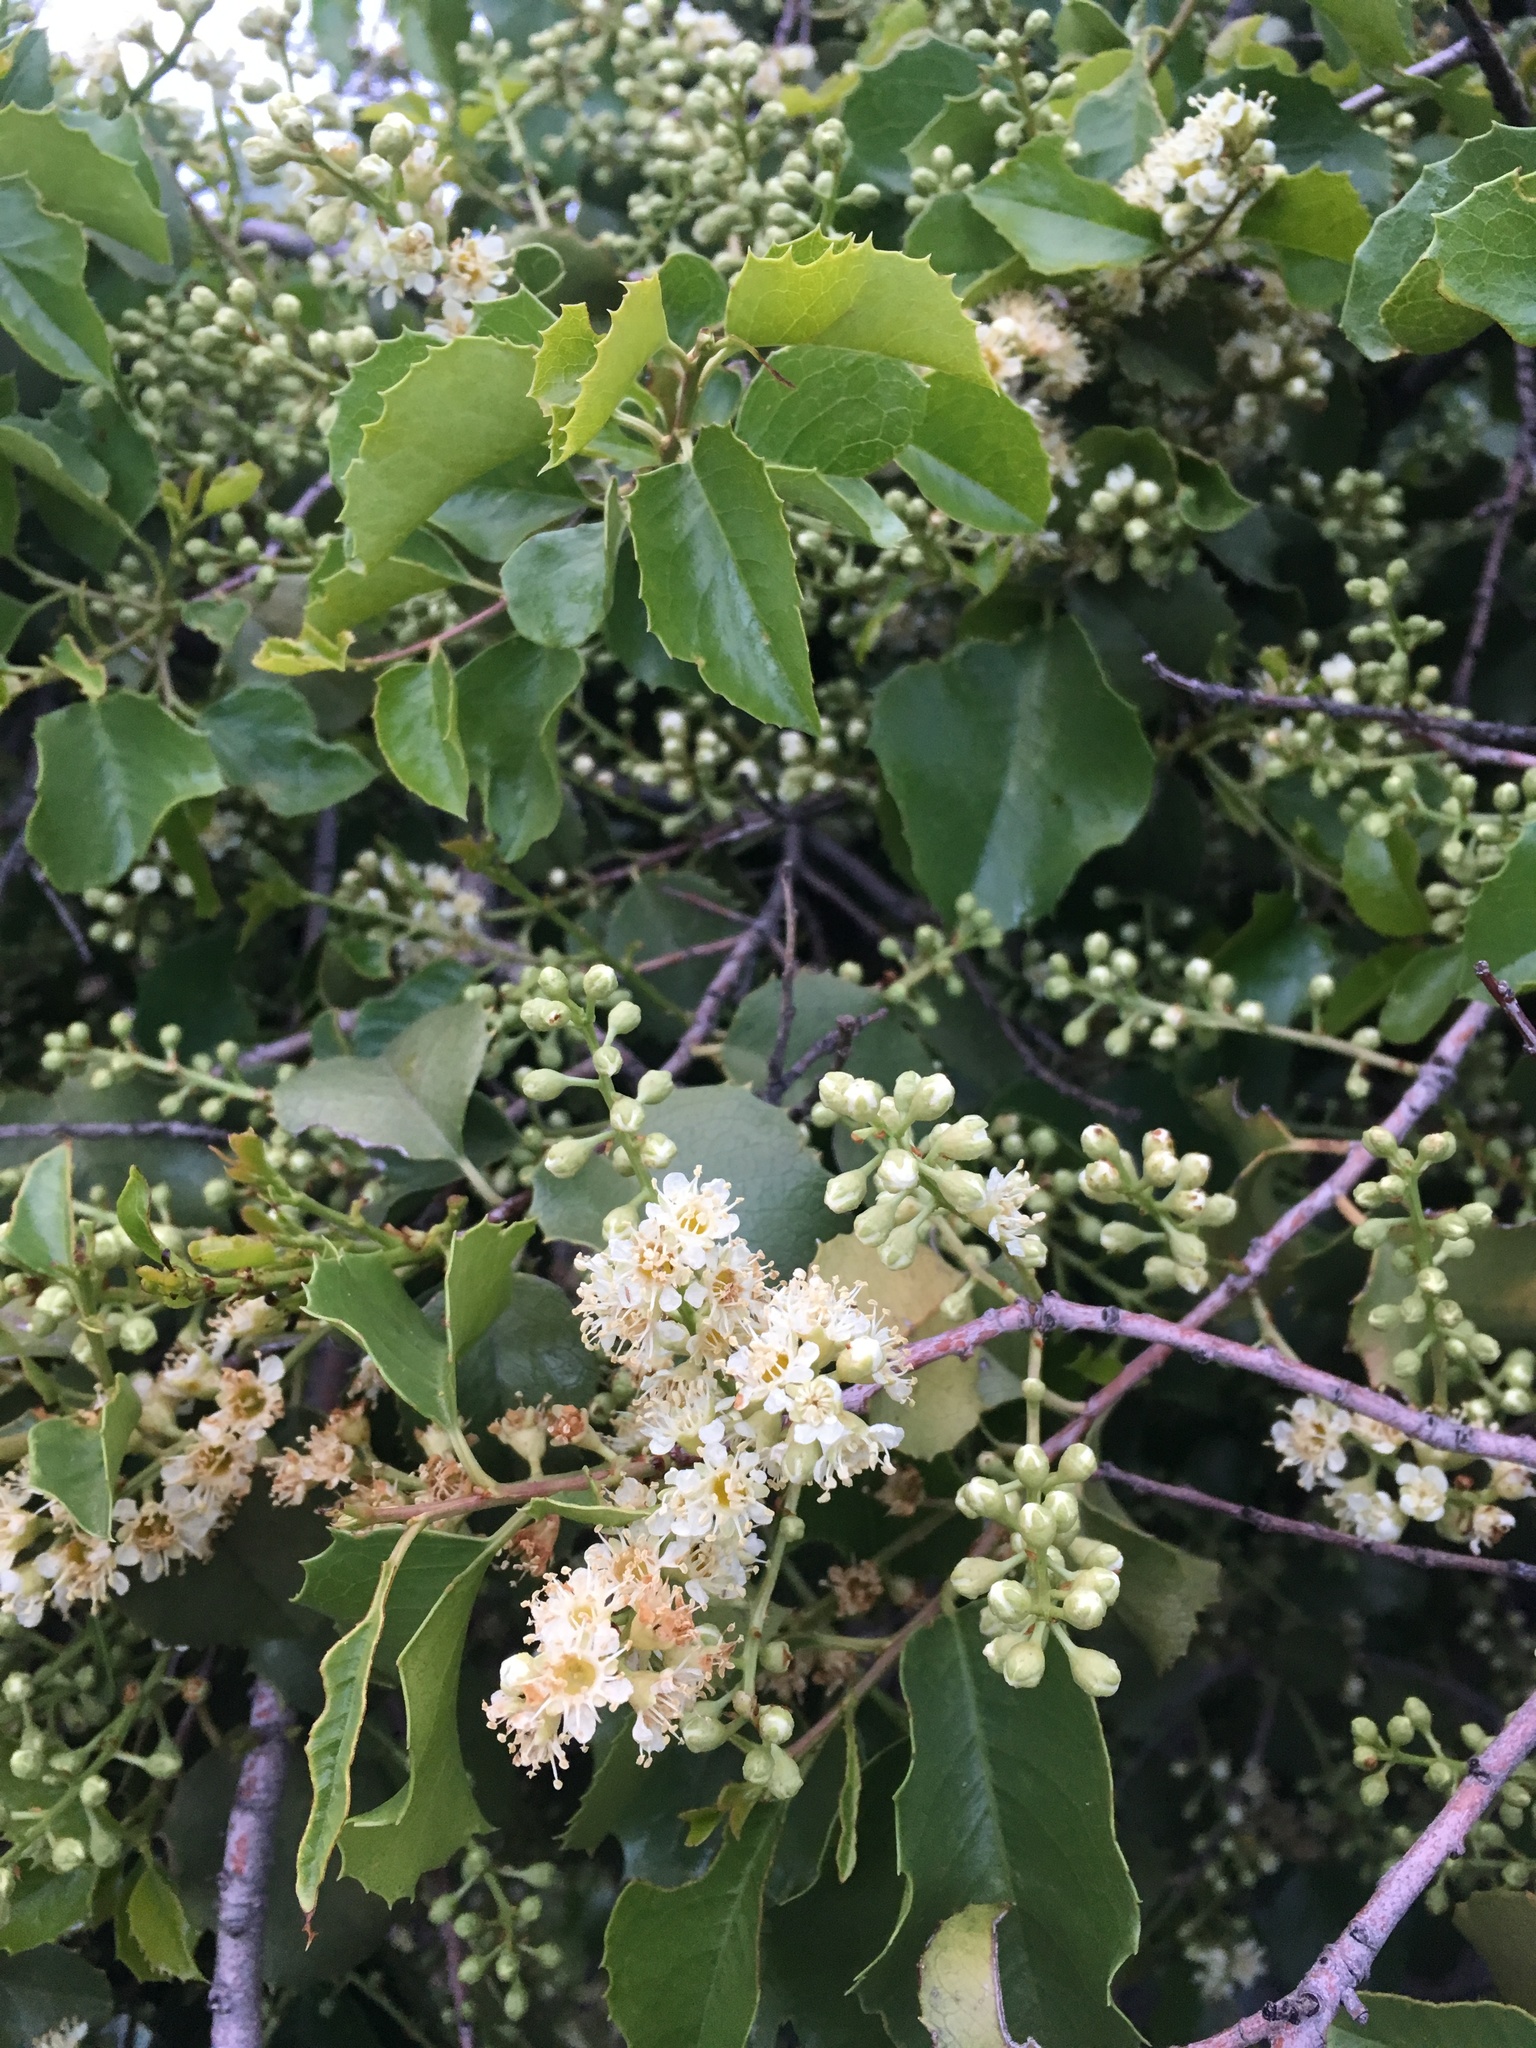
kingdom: Plantae
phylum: Tracheophyta
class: Magnoliopsida
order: Rosales
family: Rosaceae
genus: Prunus
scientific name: Prunus ilicifolia
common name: Hollyleaf cherry
